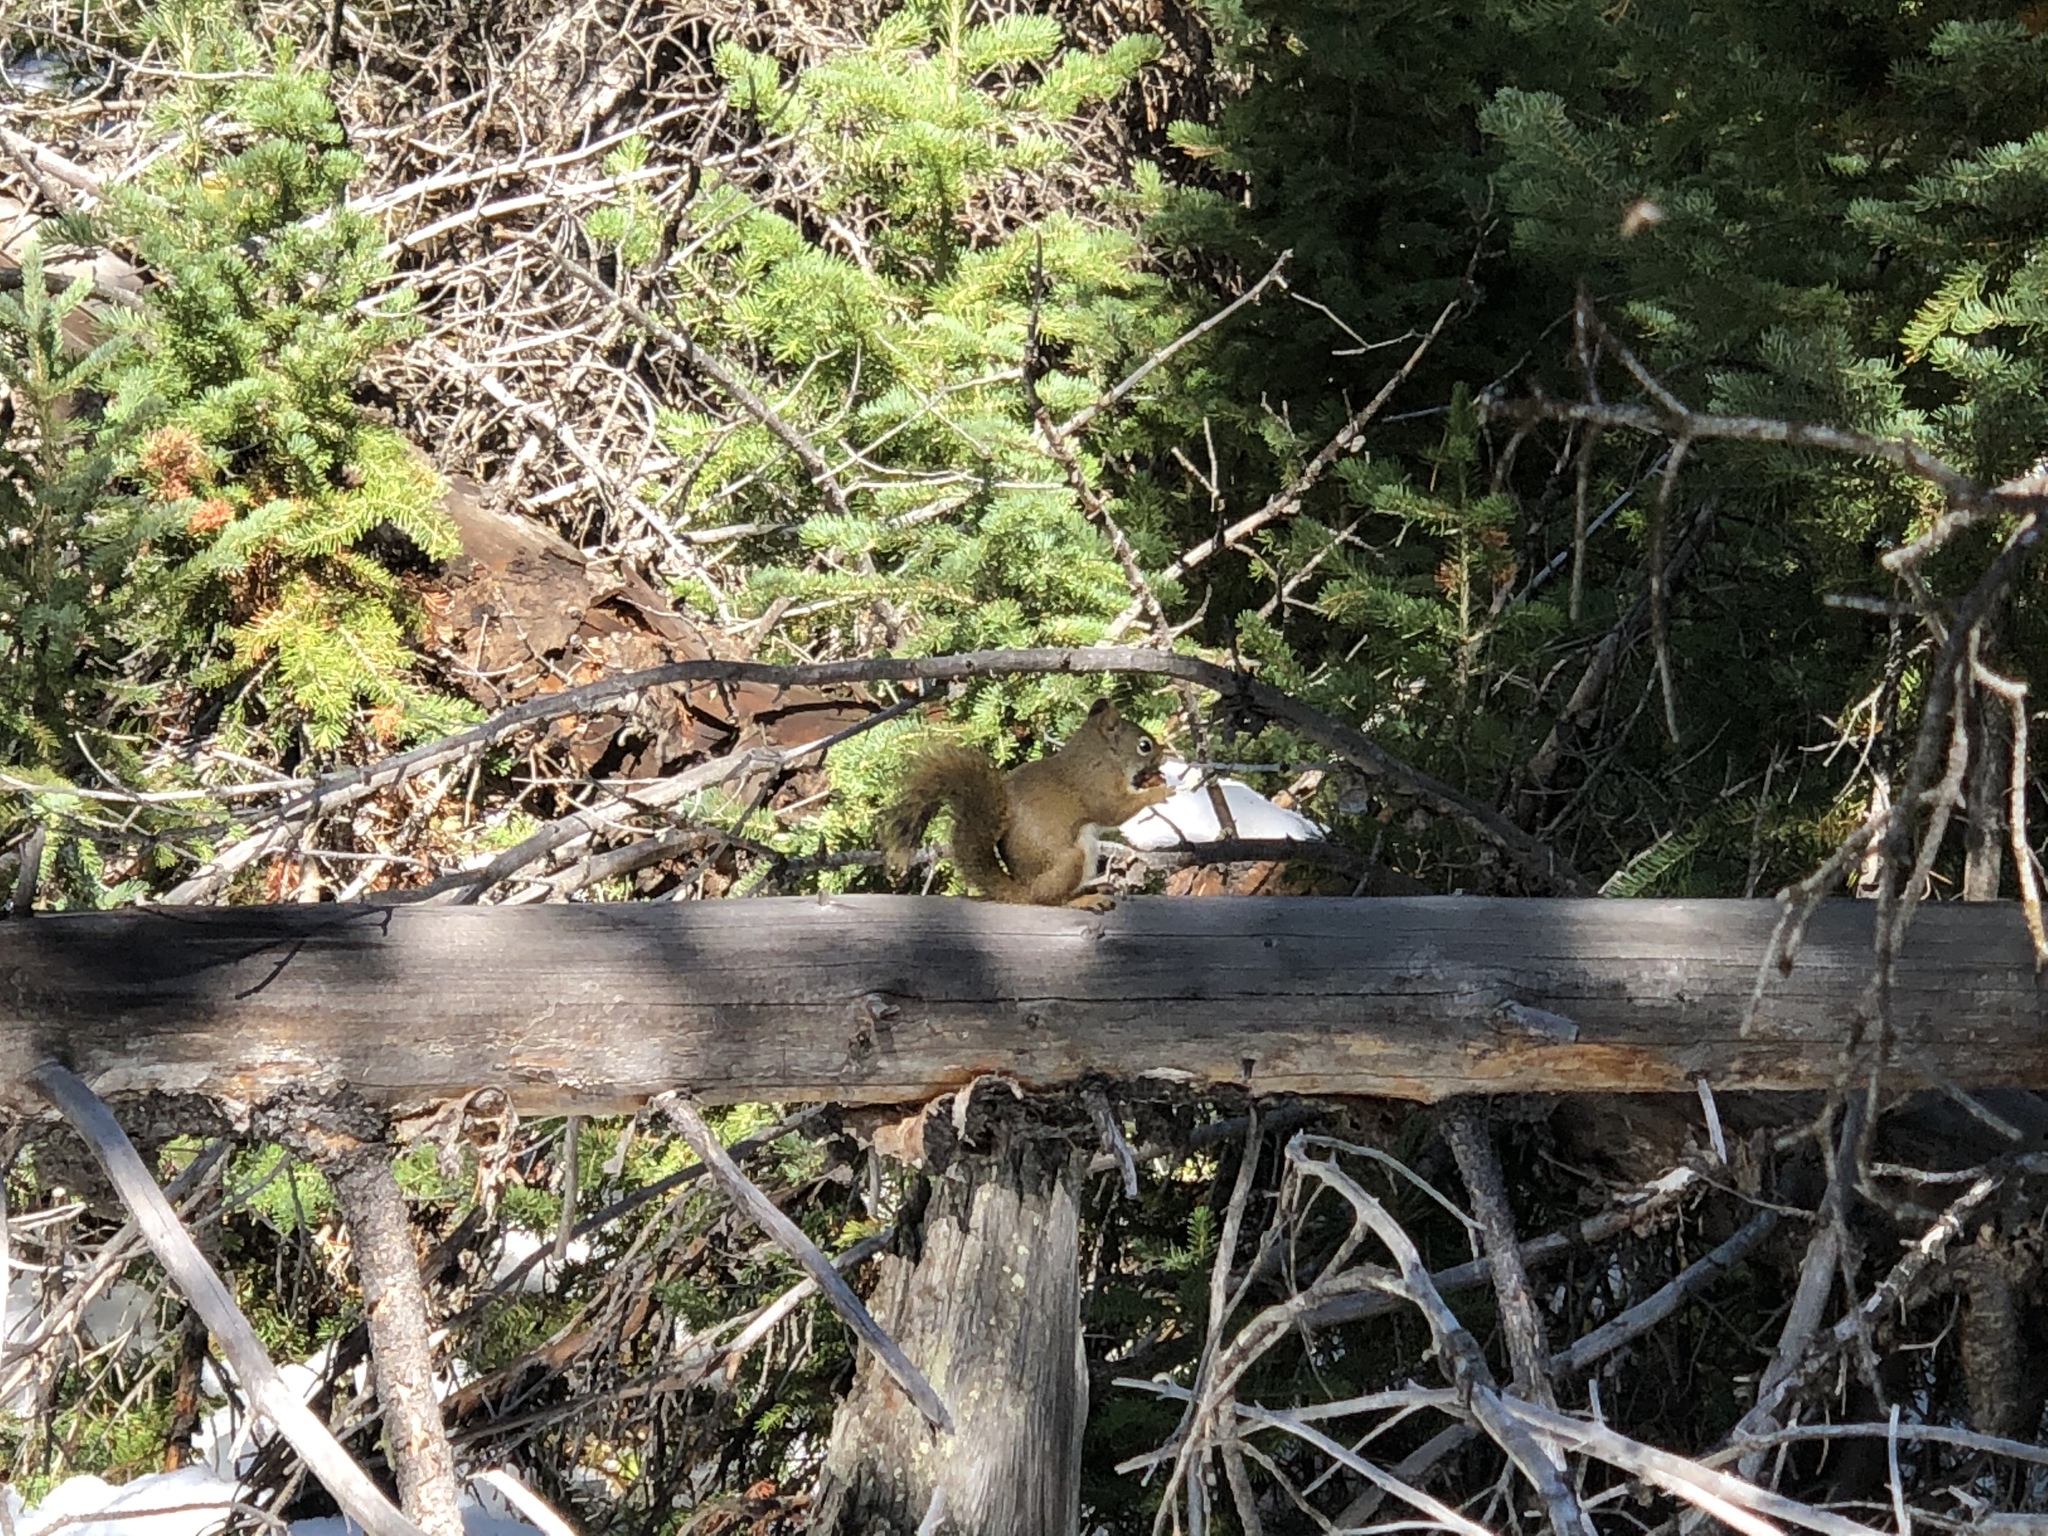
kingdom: Animalia
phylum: Chordata
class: Mammalia
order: Rodentia
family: Sciuridae
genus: Tamiasciurus
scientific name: Tamiasciurus hudsonicus
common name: Red squirrel
